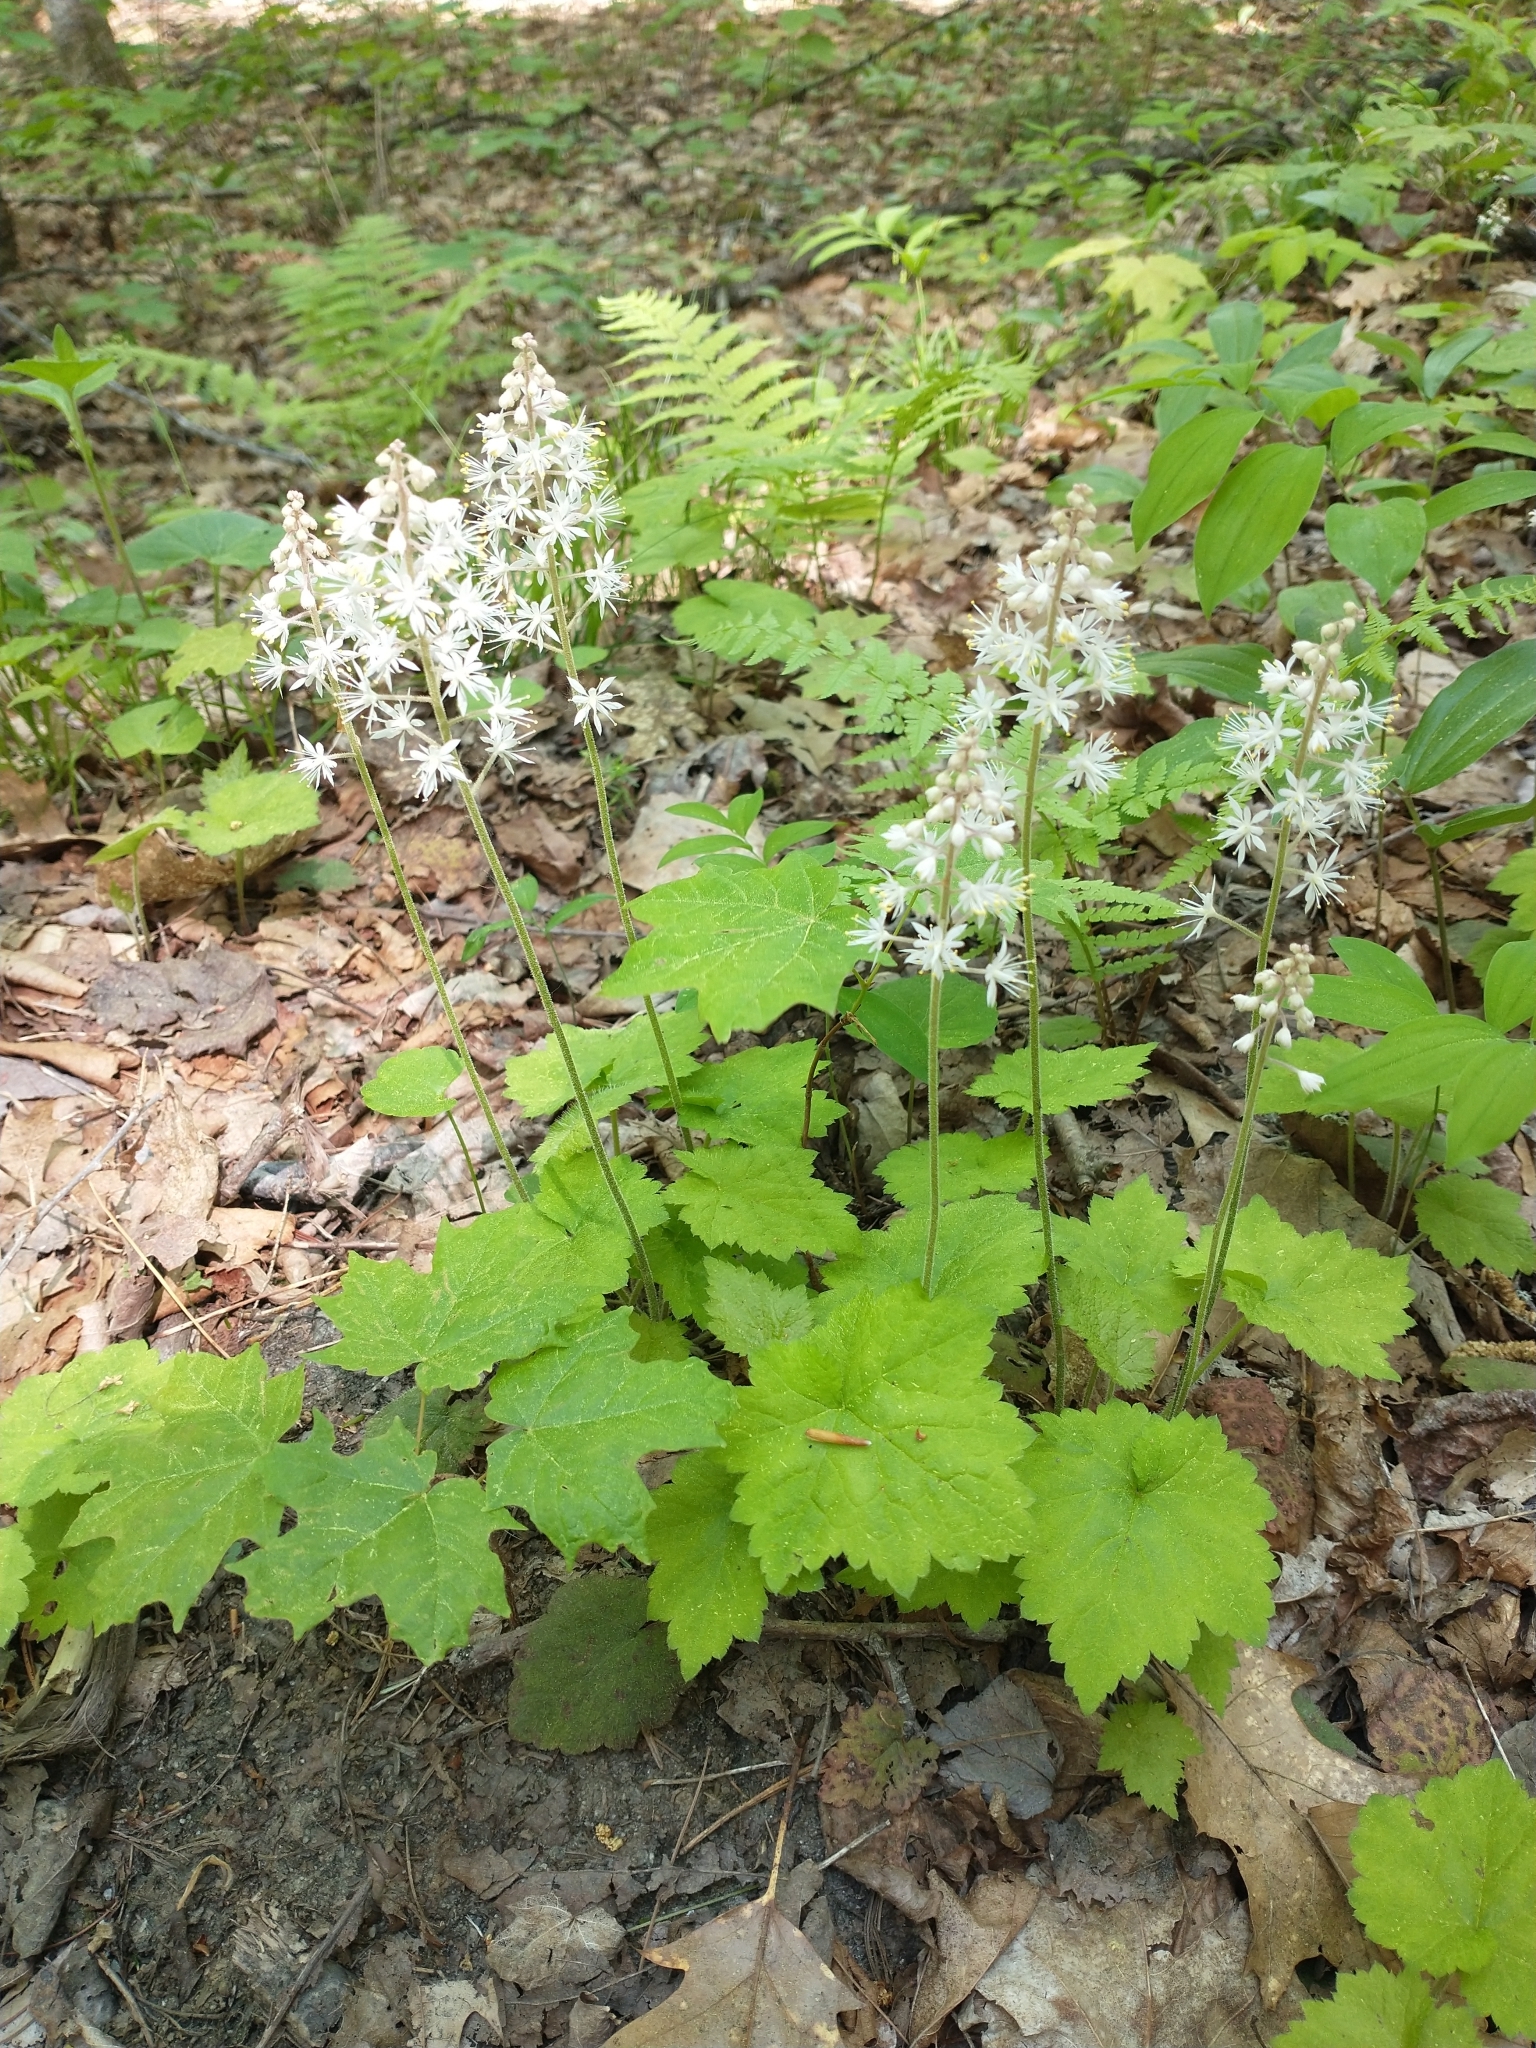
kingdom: Plantae
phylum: Tracheophyta
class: Magnoliopsida
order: Saxifragales
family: Saxifragaceae
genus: Tiarella
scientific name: Tiarella stolonifera
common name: Stoloniferous foamflower
